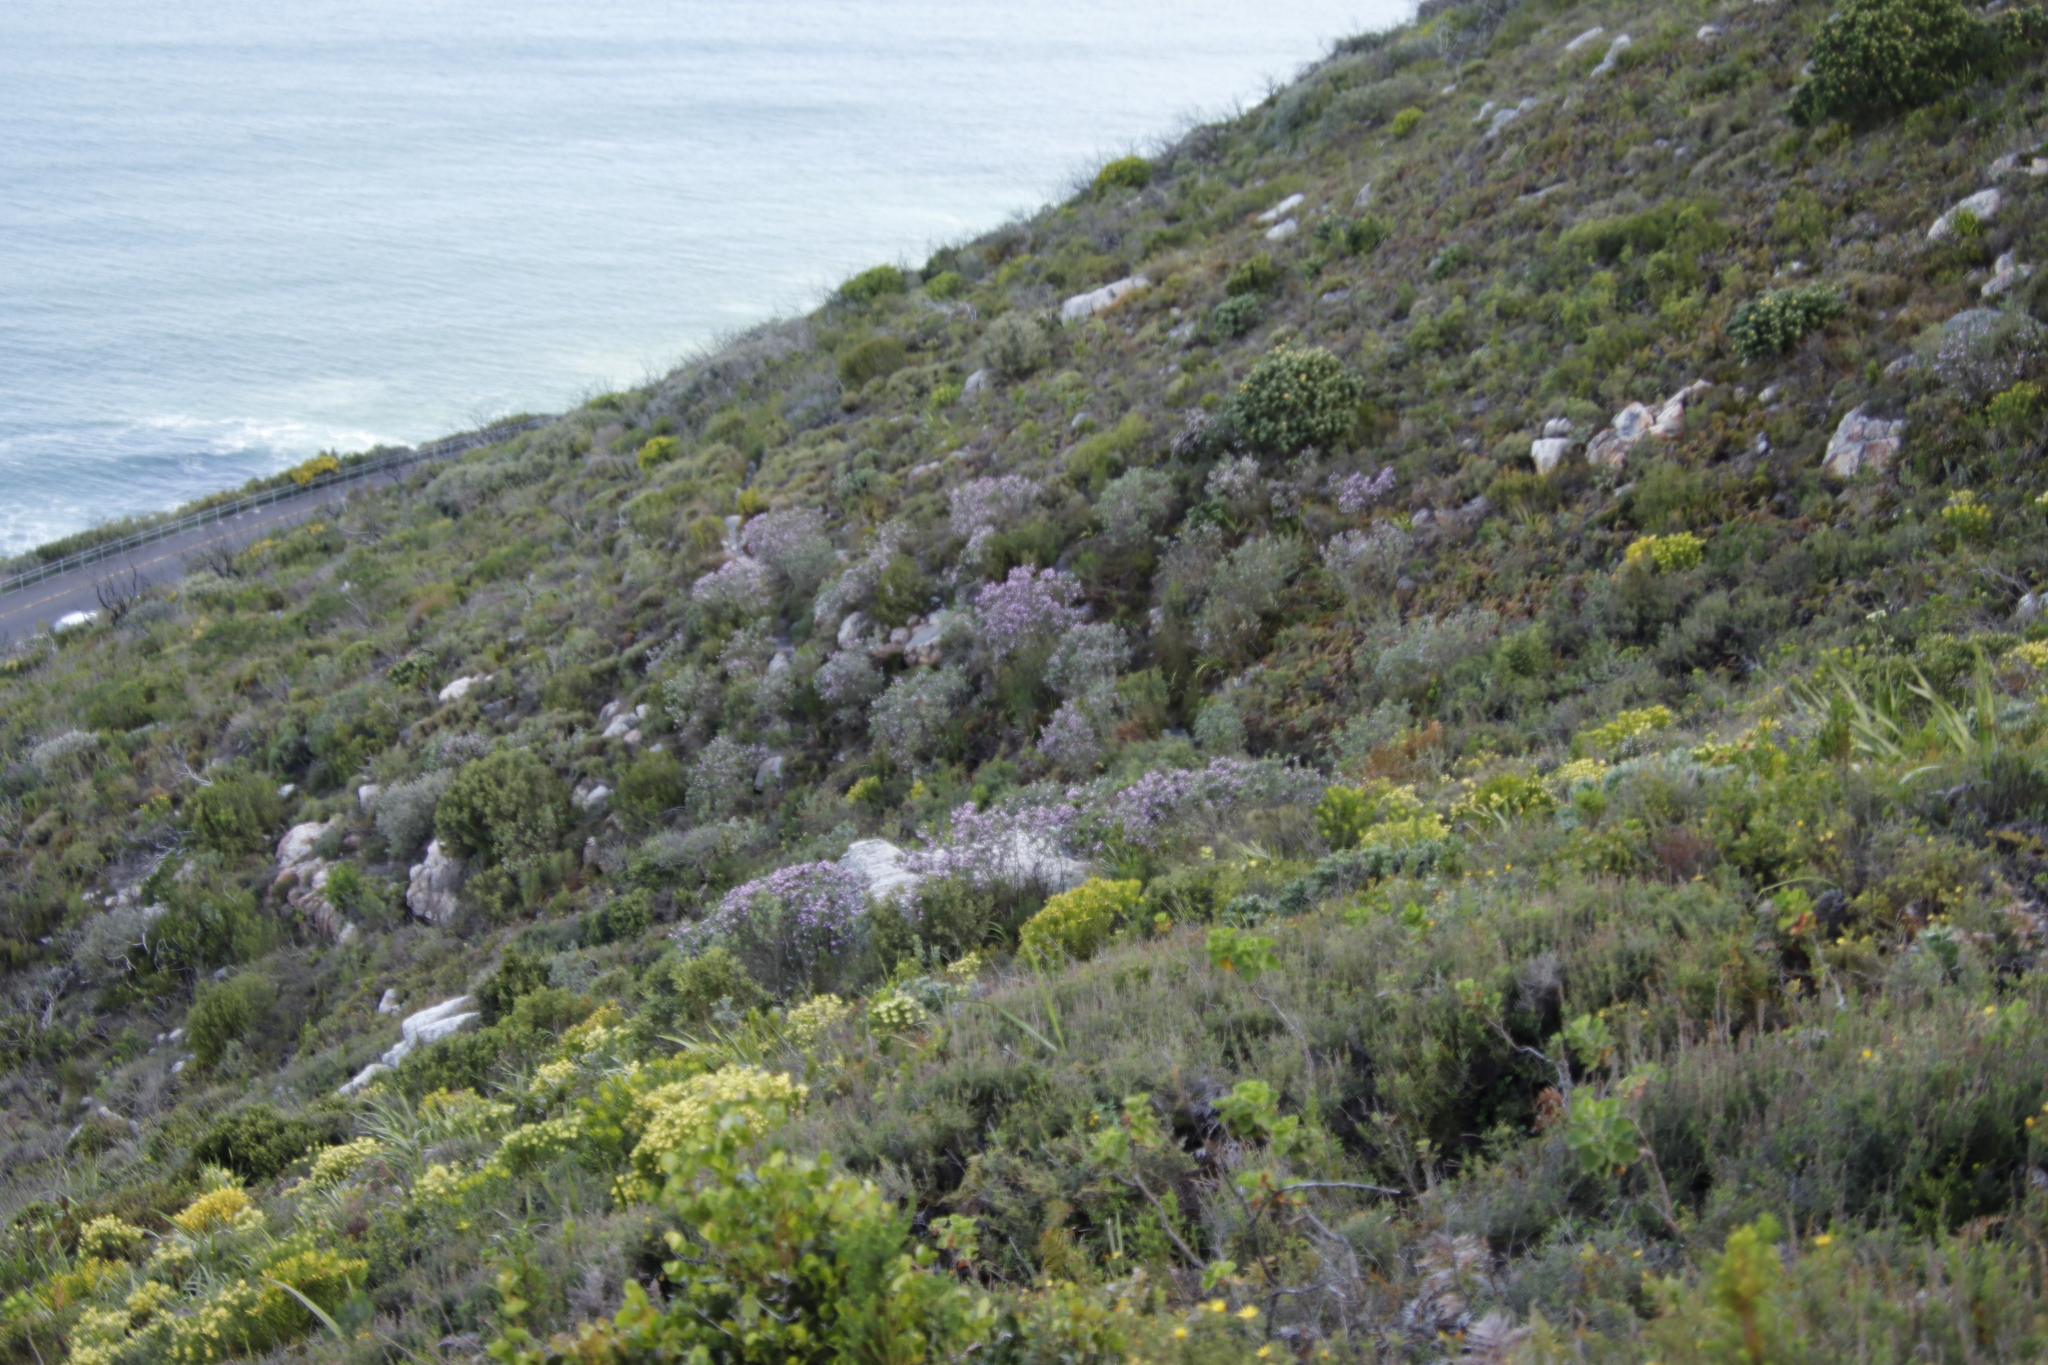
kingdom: Plantae
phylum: Tracheophyta
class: Magnoliopsida
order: Fabales
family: Fabaceae
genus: Podalyria
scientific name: Podalyria calyptrata
